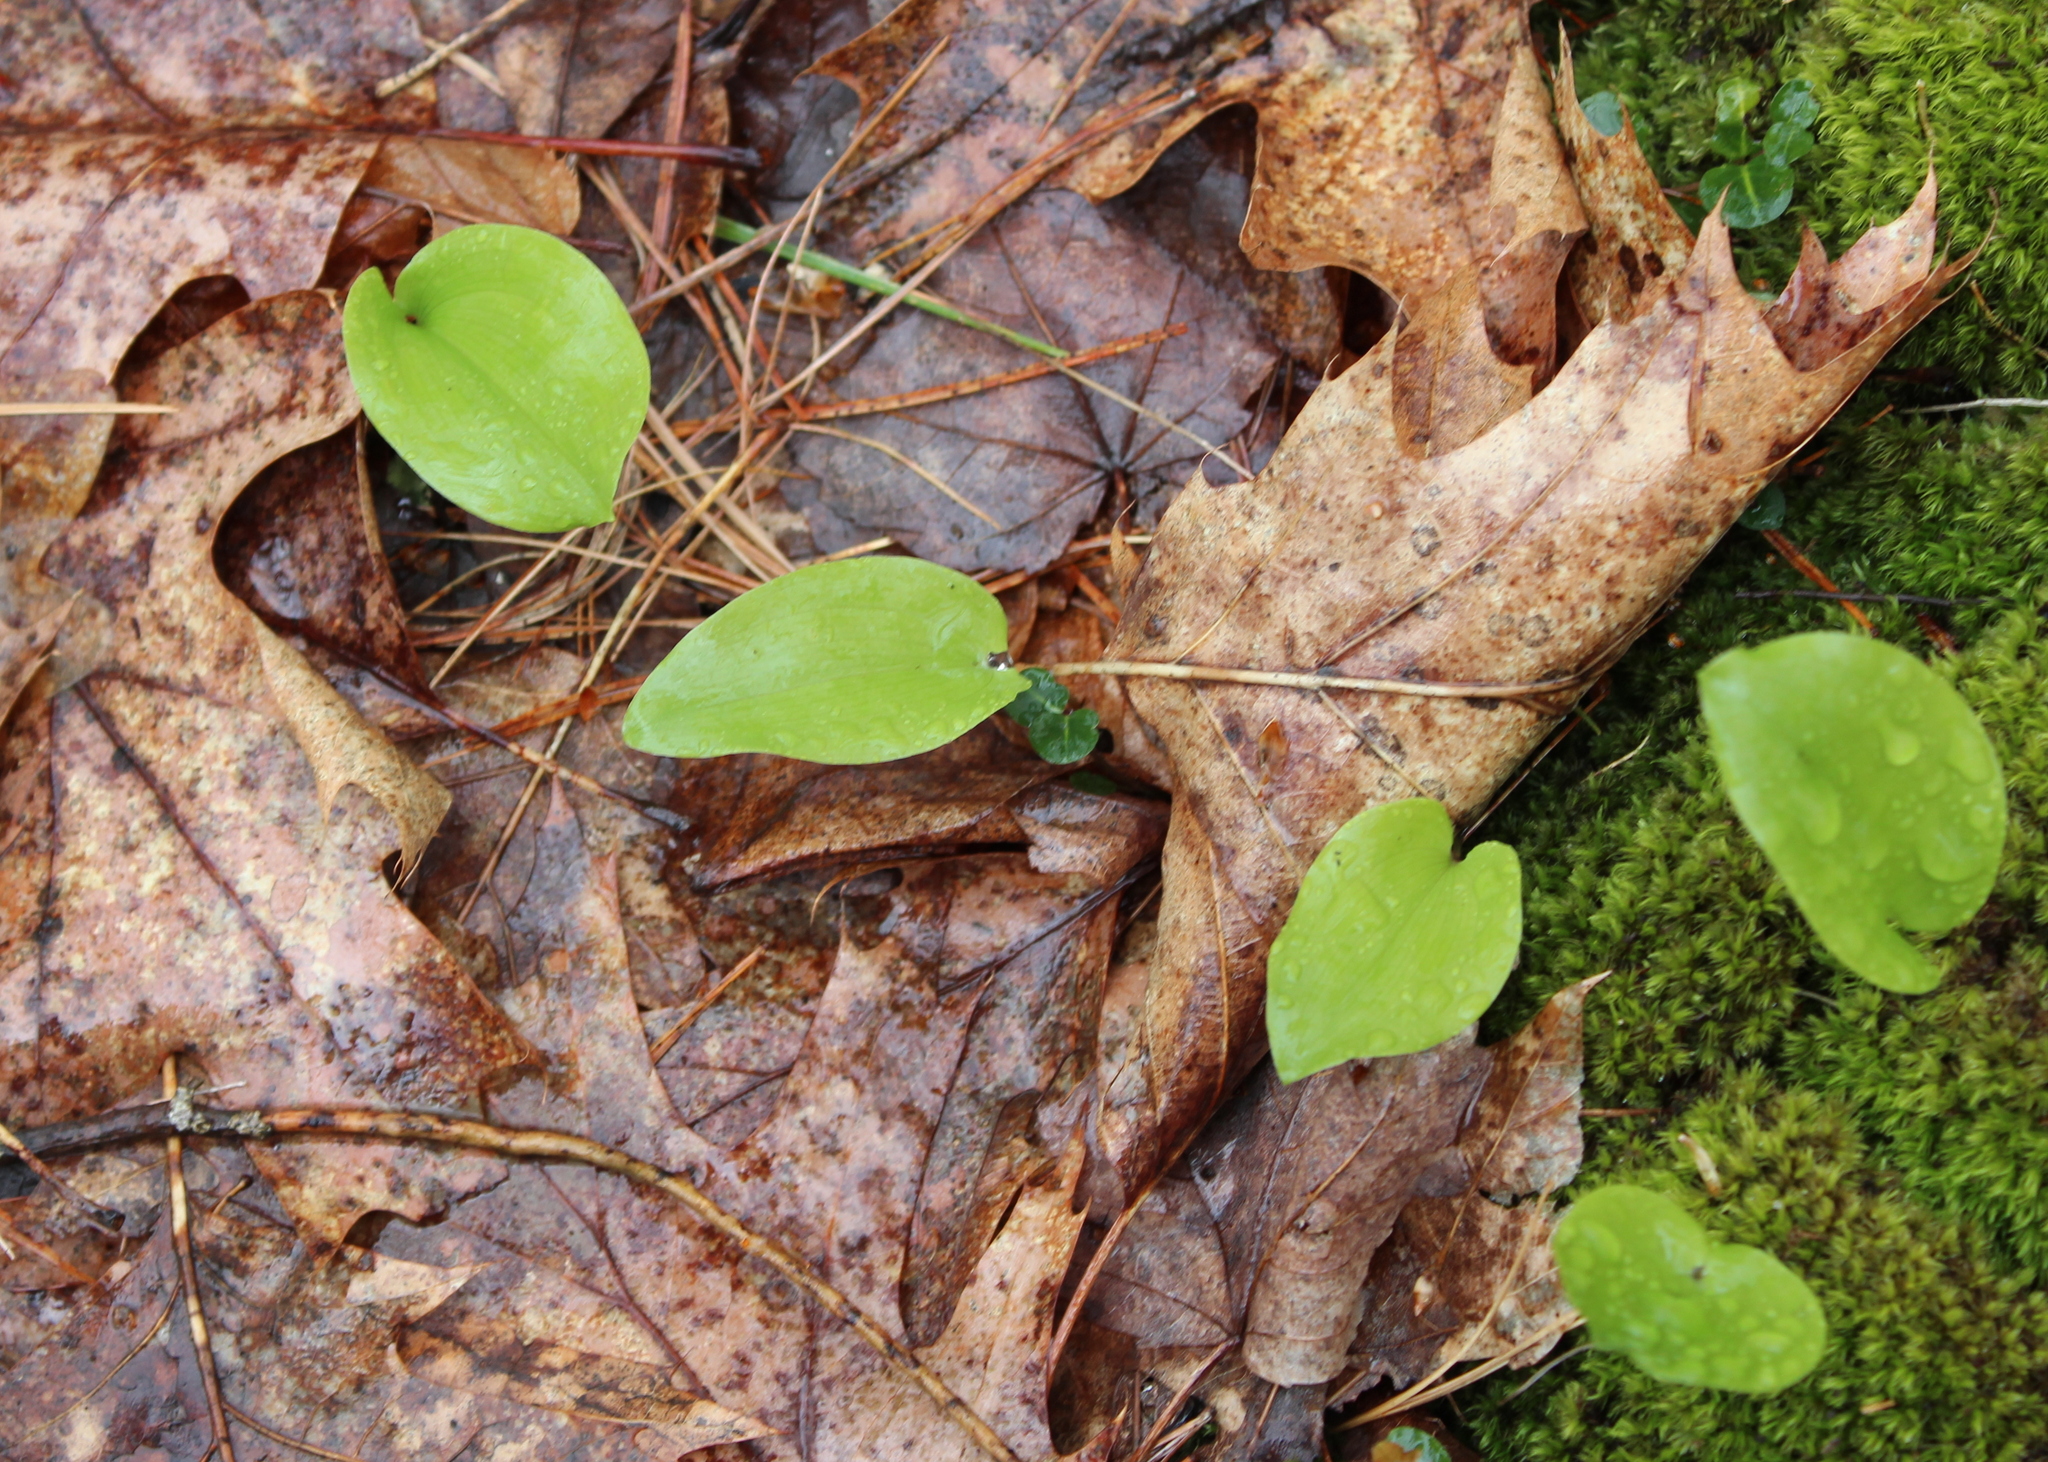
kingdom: Plantae
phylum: Tracheophyta
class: Liliopsida
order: Asparagales
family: Asparagaceae
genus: Maianthemum
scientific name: Maianthemum canadense
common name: False lily-of-the-valley
